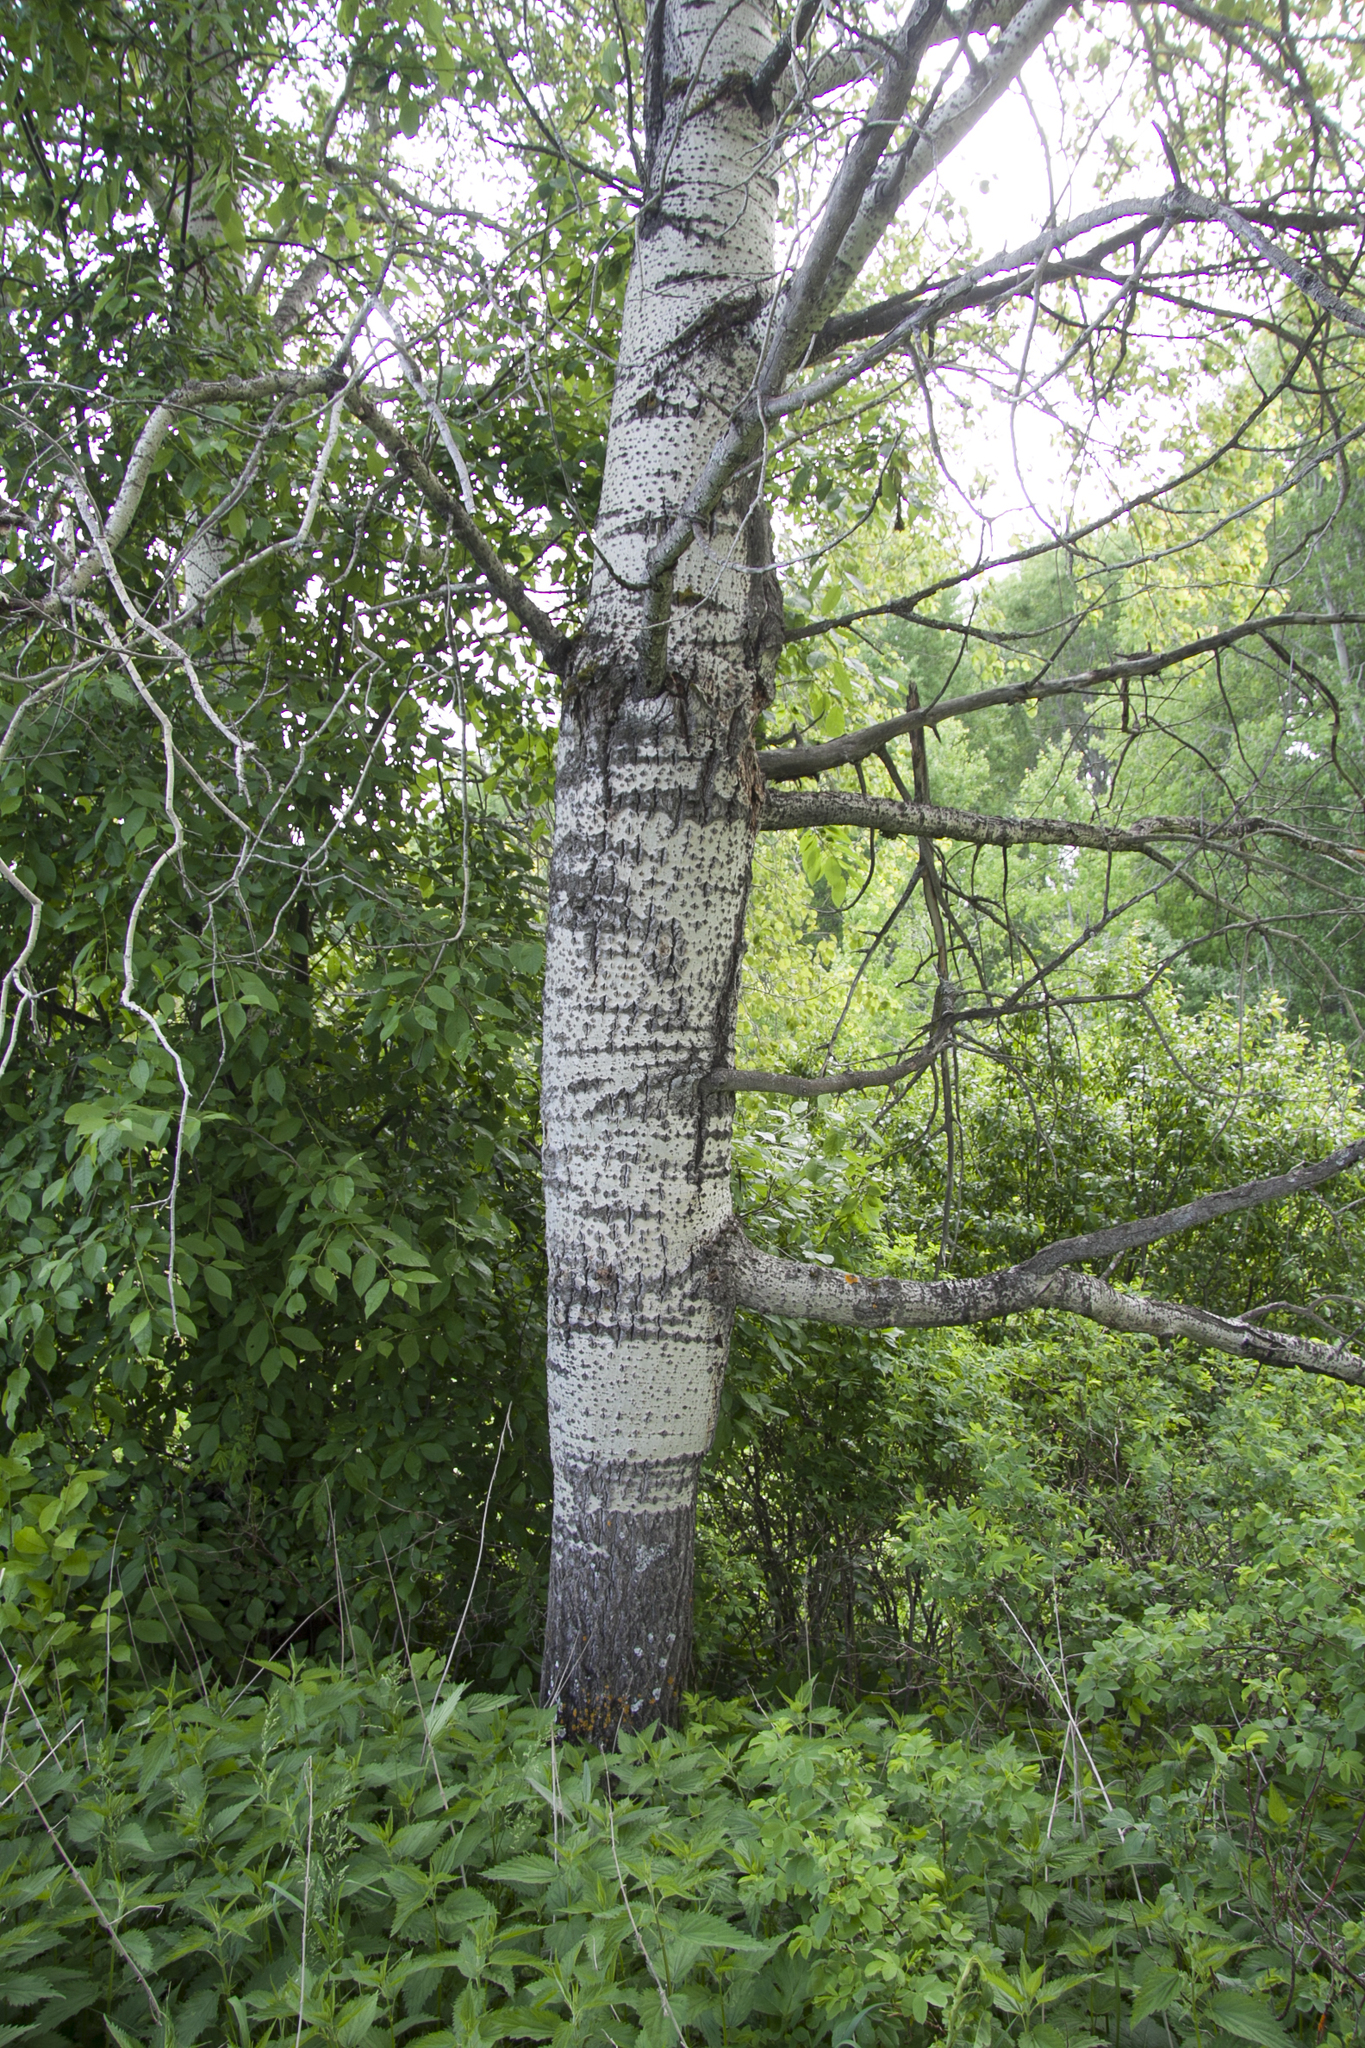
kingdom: Plantae
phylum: Tracheophyta
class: Magnoliopsida
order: Malpighiales
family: Salicaceae
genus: Populus
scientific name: Populus tremula
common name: European aspen
